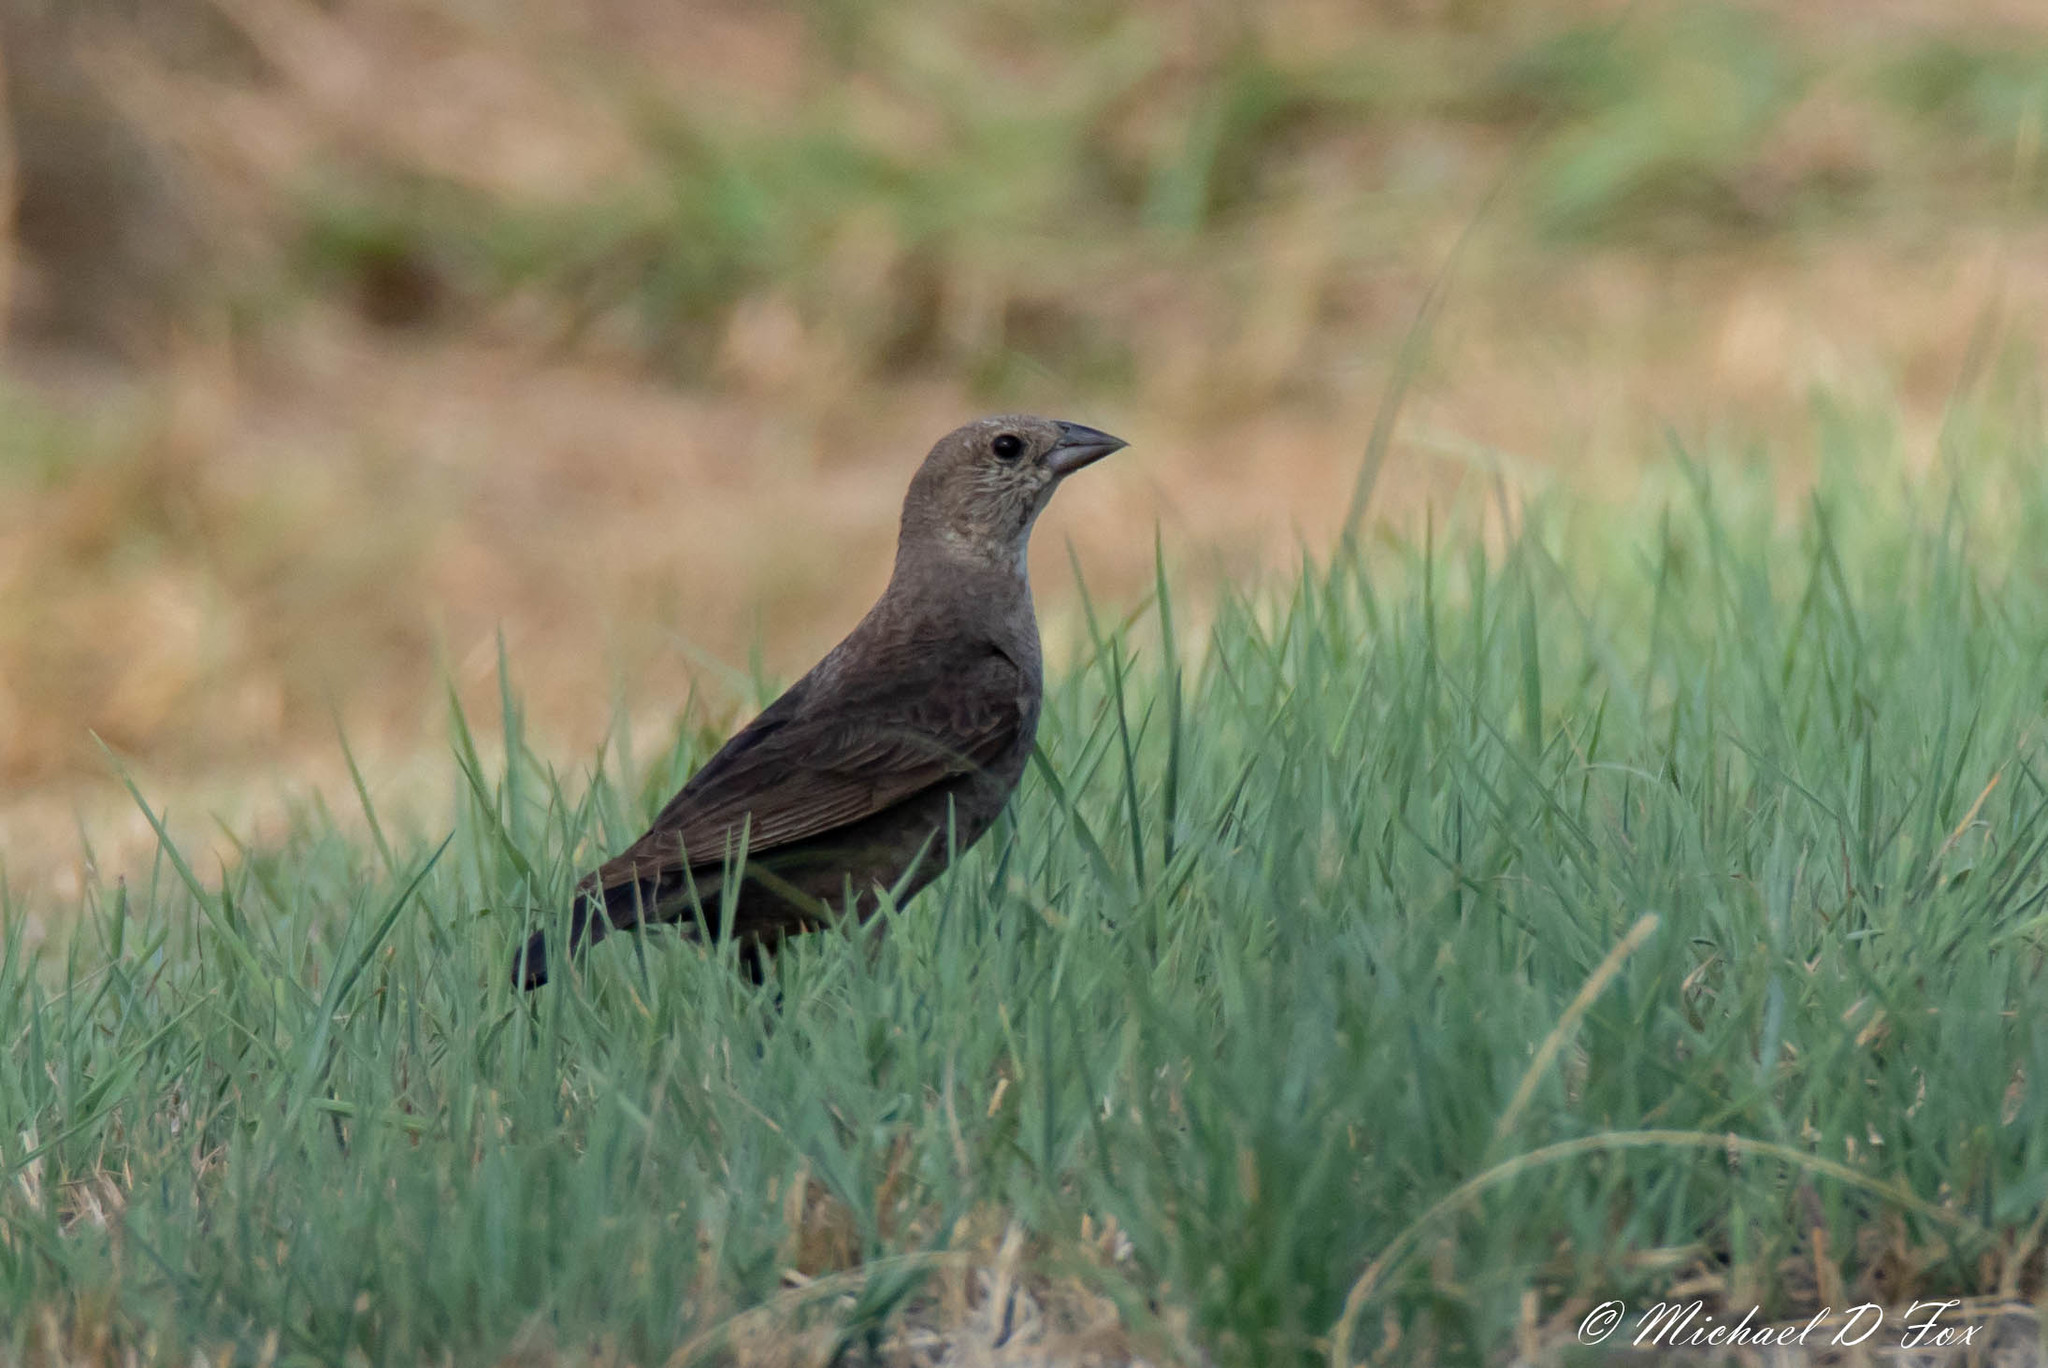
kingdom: Animalia
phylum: Chordata
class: Aves
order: Passeriformes
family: Icteridae
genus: Molothrus
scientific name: Molothrus ater
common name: Brown-headed cowbird
